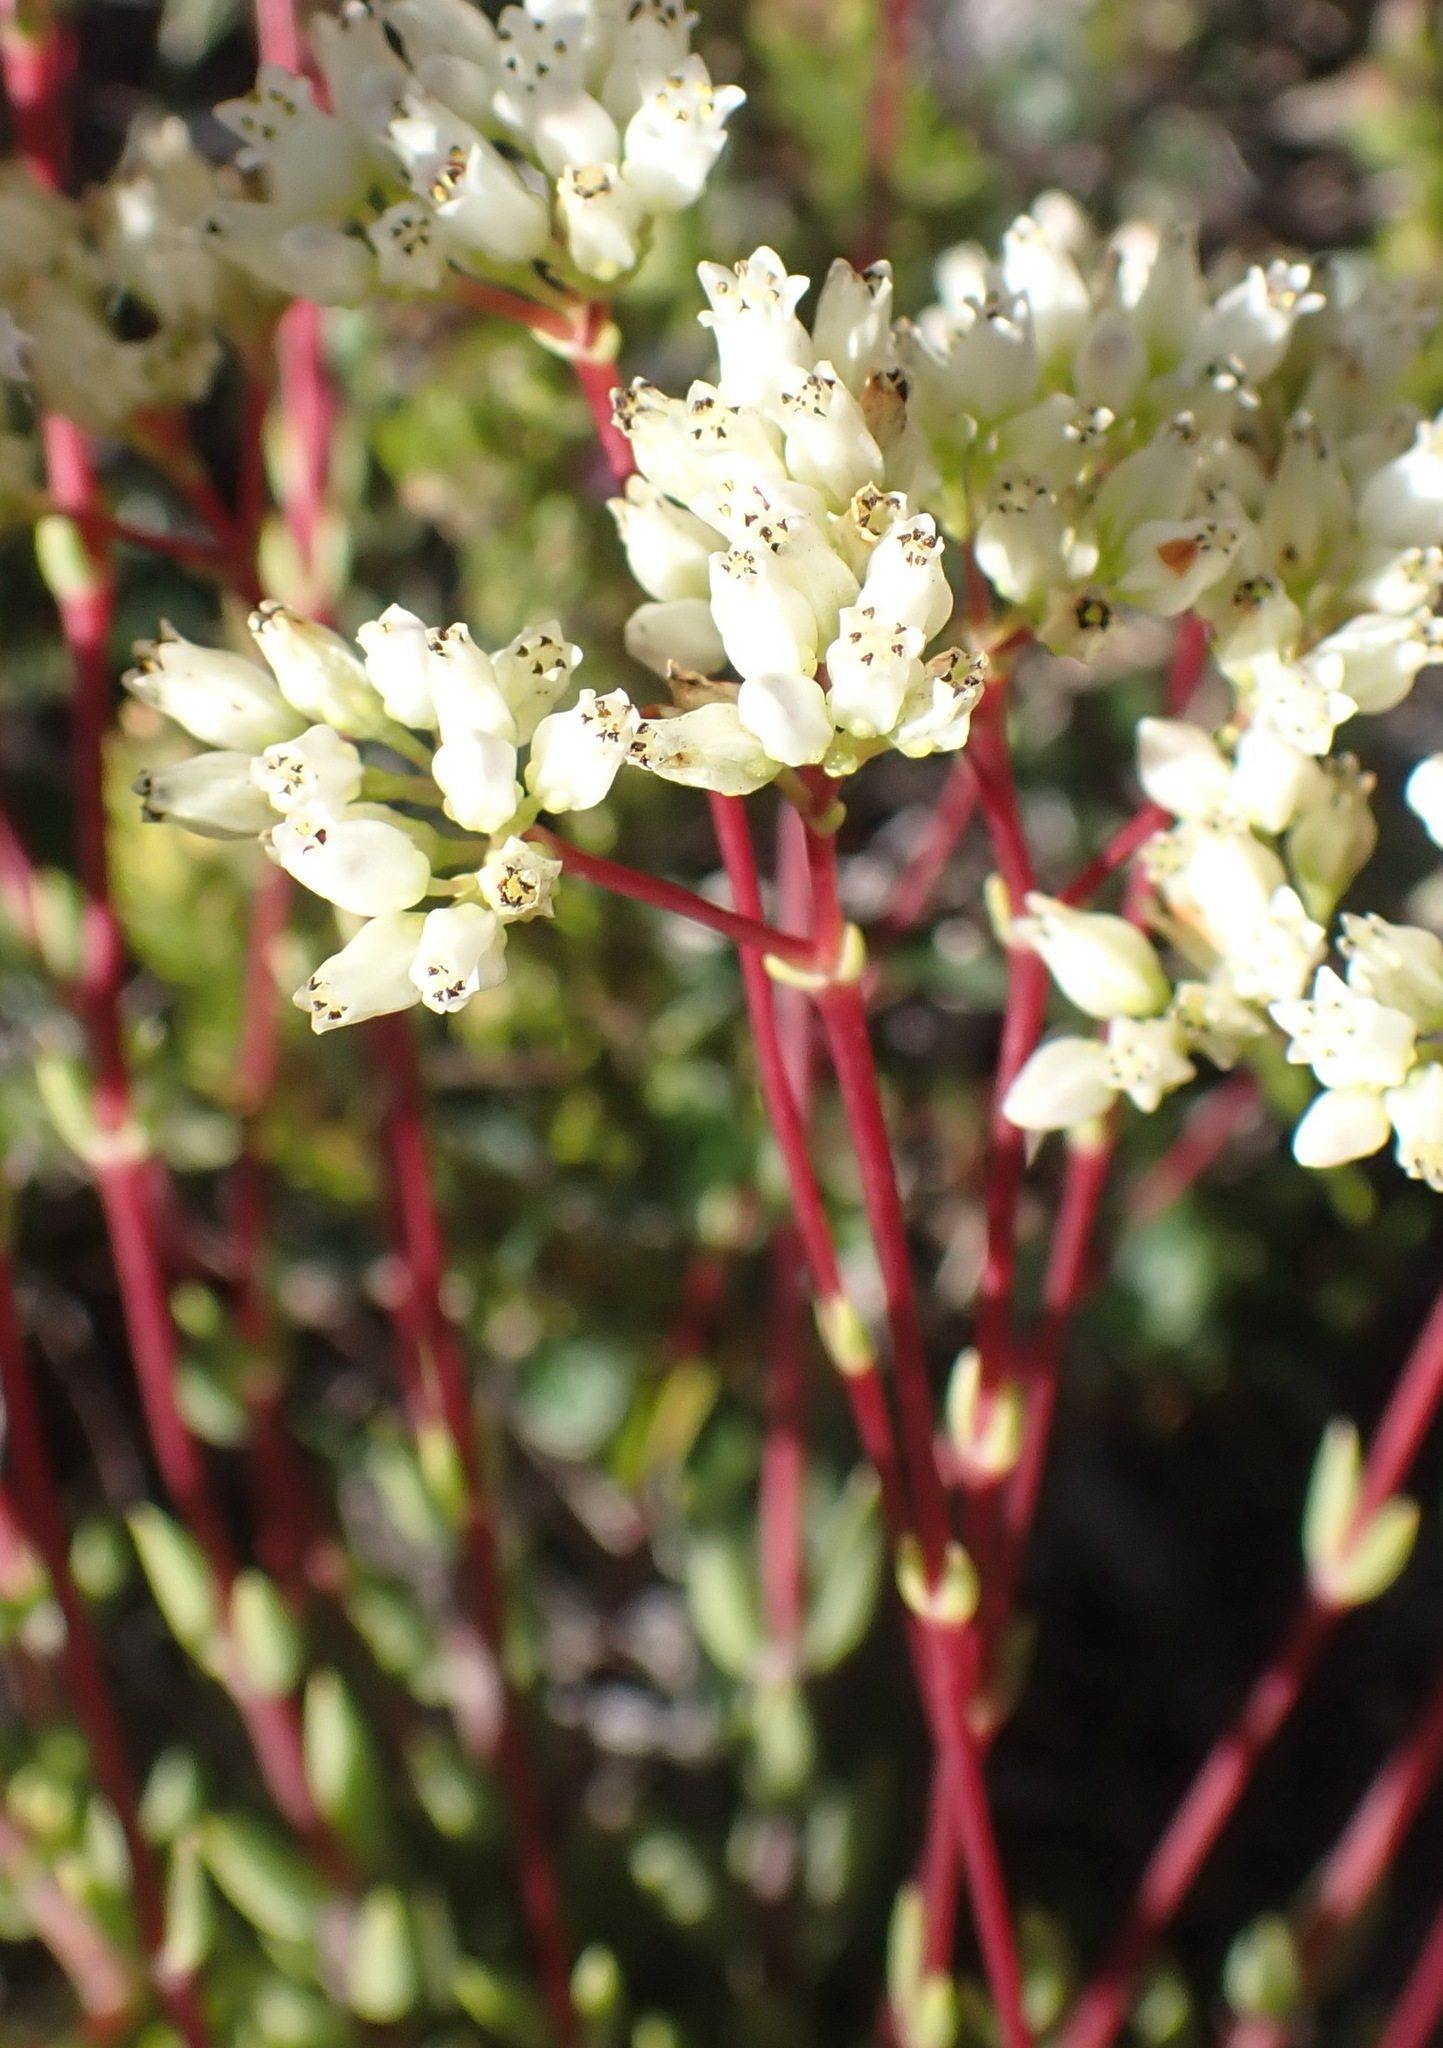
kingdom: Plantae
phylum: Tracheophyta
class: Magnoliopsida
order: Saxifragales
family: Crassulaceae
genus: Crassula
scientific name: Crassula biplanata
